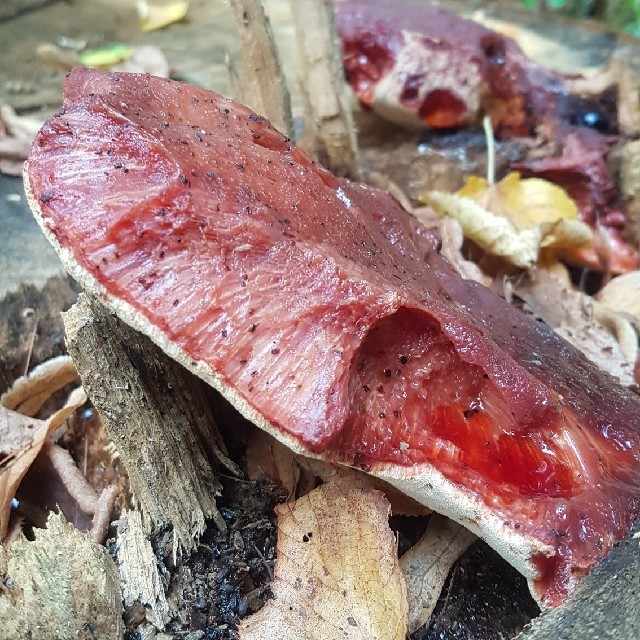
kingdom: Fungi
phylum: Basidiomycota
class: Agaricomycetes
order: Agaricales
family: Fistulinaceae
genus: Fistulina
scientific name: Fistulina hepatica
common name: Beef-steak fungus
